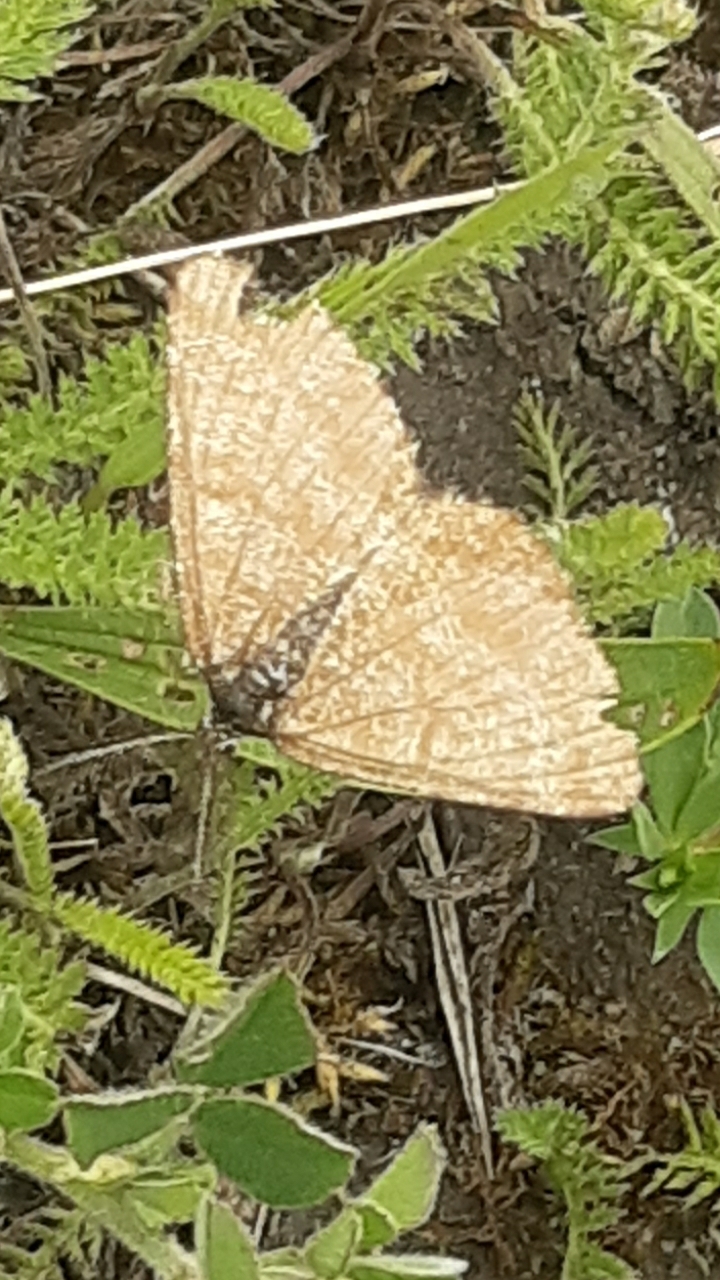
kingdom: Animalia
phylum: Arthropoda
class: Insecta
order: Lepidoptera
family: Geometridae
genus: Ematurga
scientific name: Ematurga atomaria
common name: Common heath
